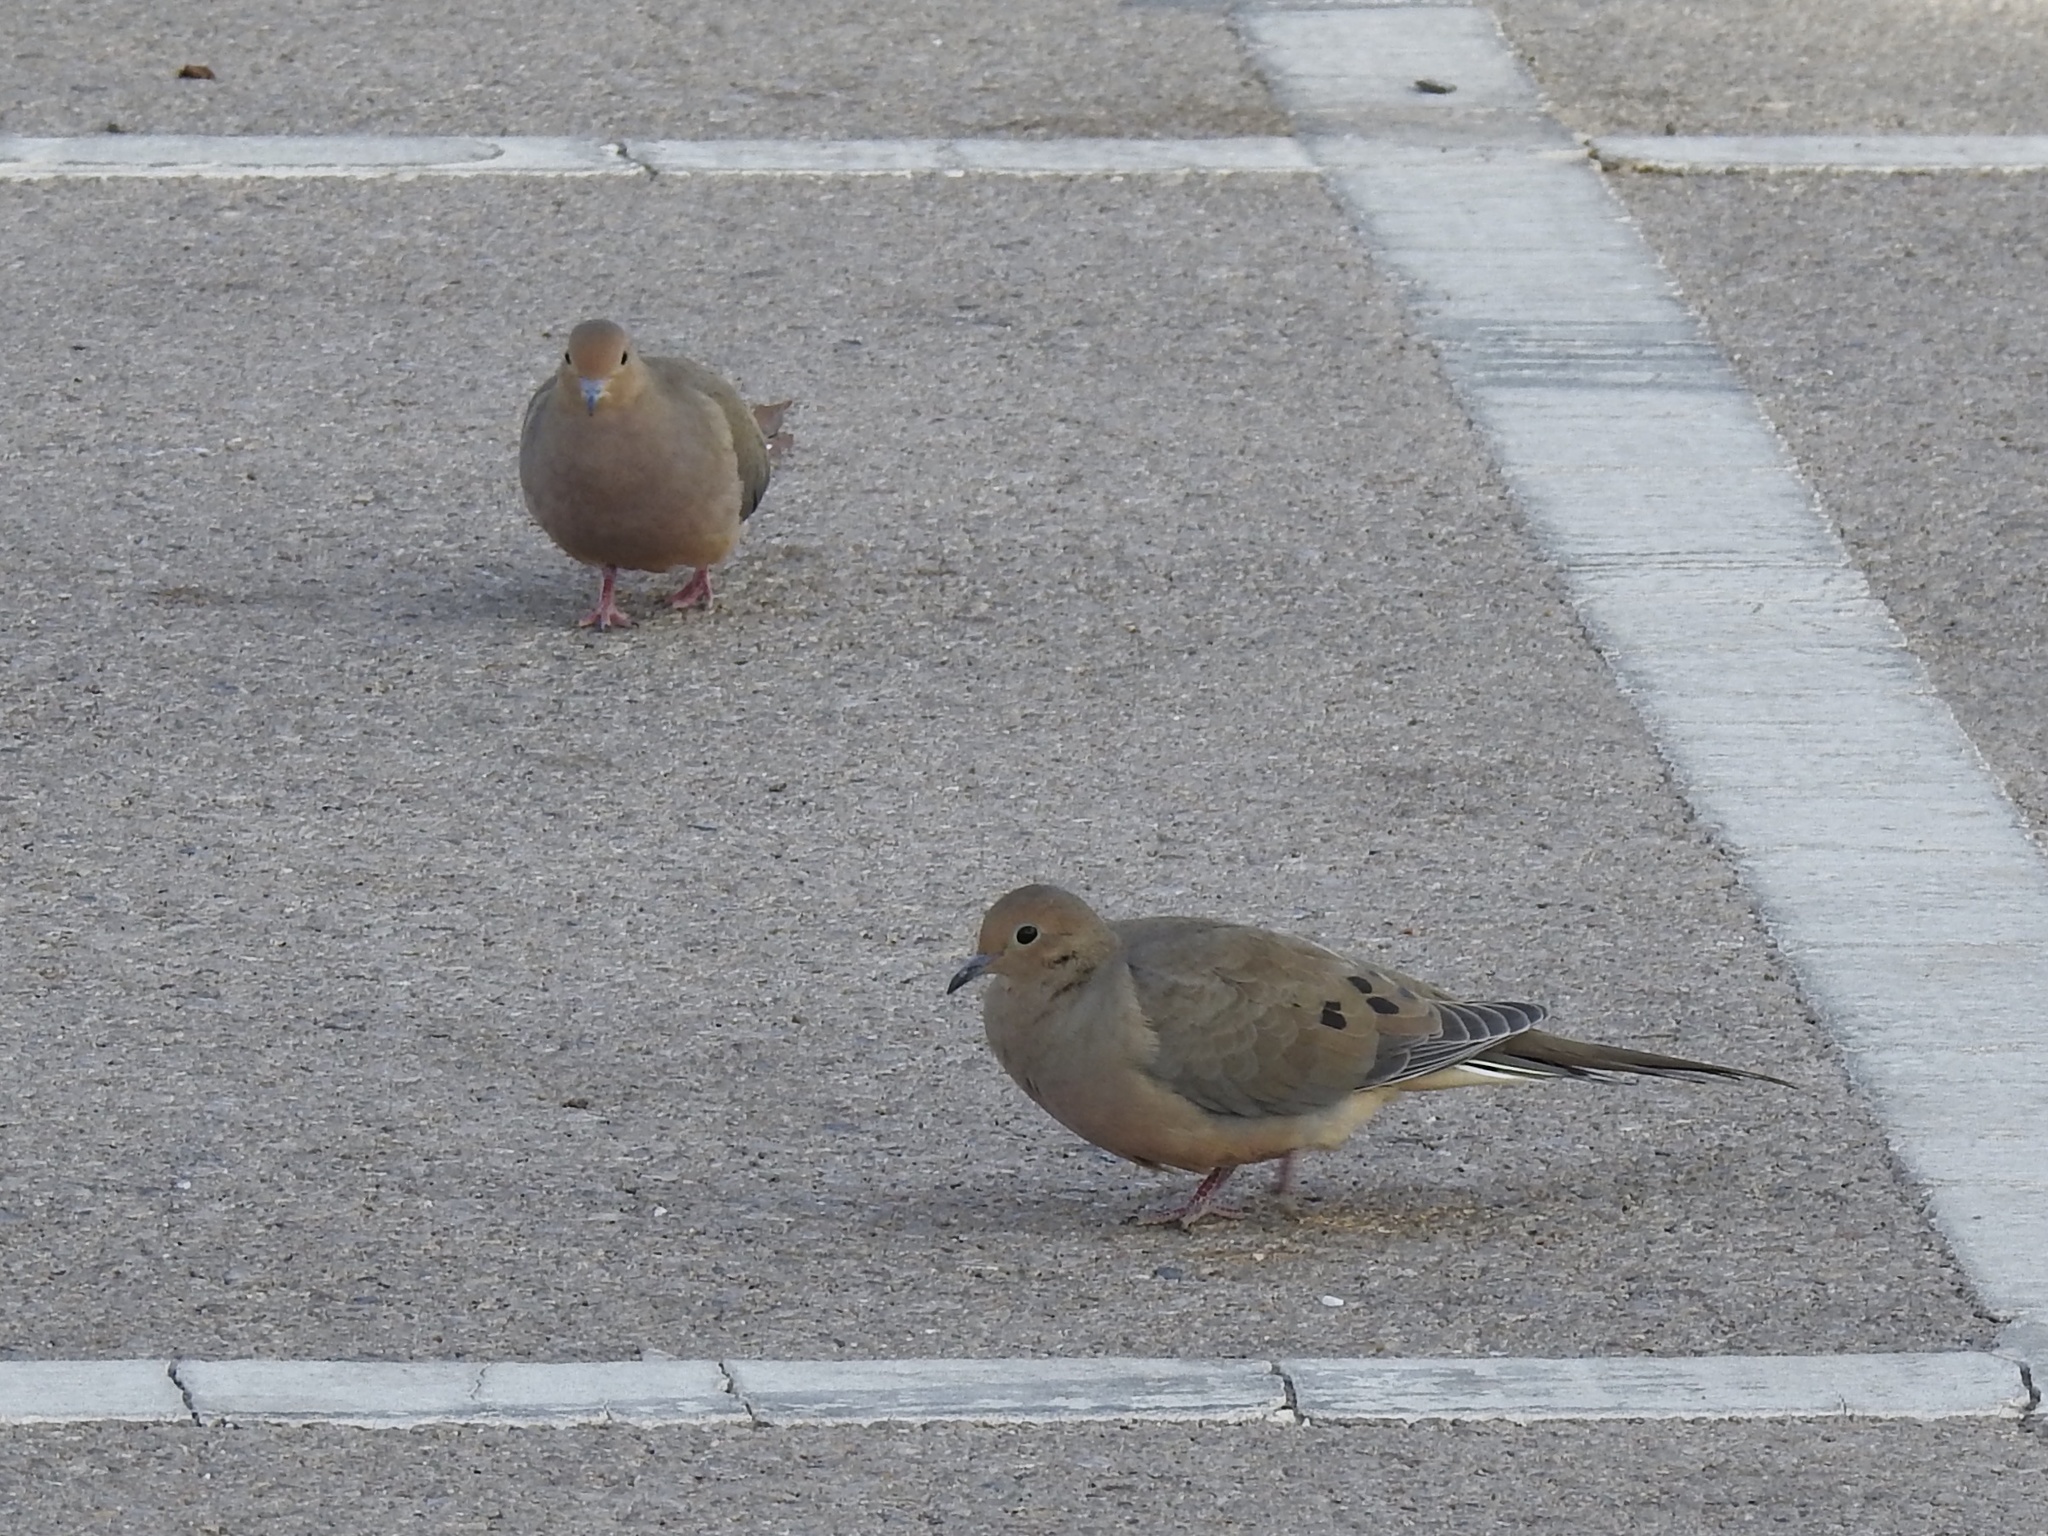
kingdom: Animalia
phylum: Chordata
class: Aves
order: Columbiformes
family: Columbidae
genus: Zenaida
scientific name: Zenaida macroura
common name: Mourning dove
